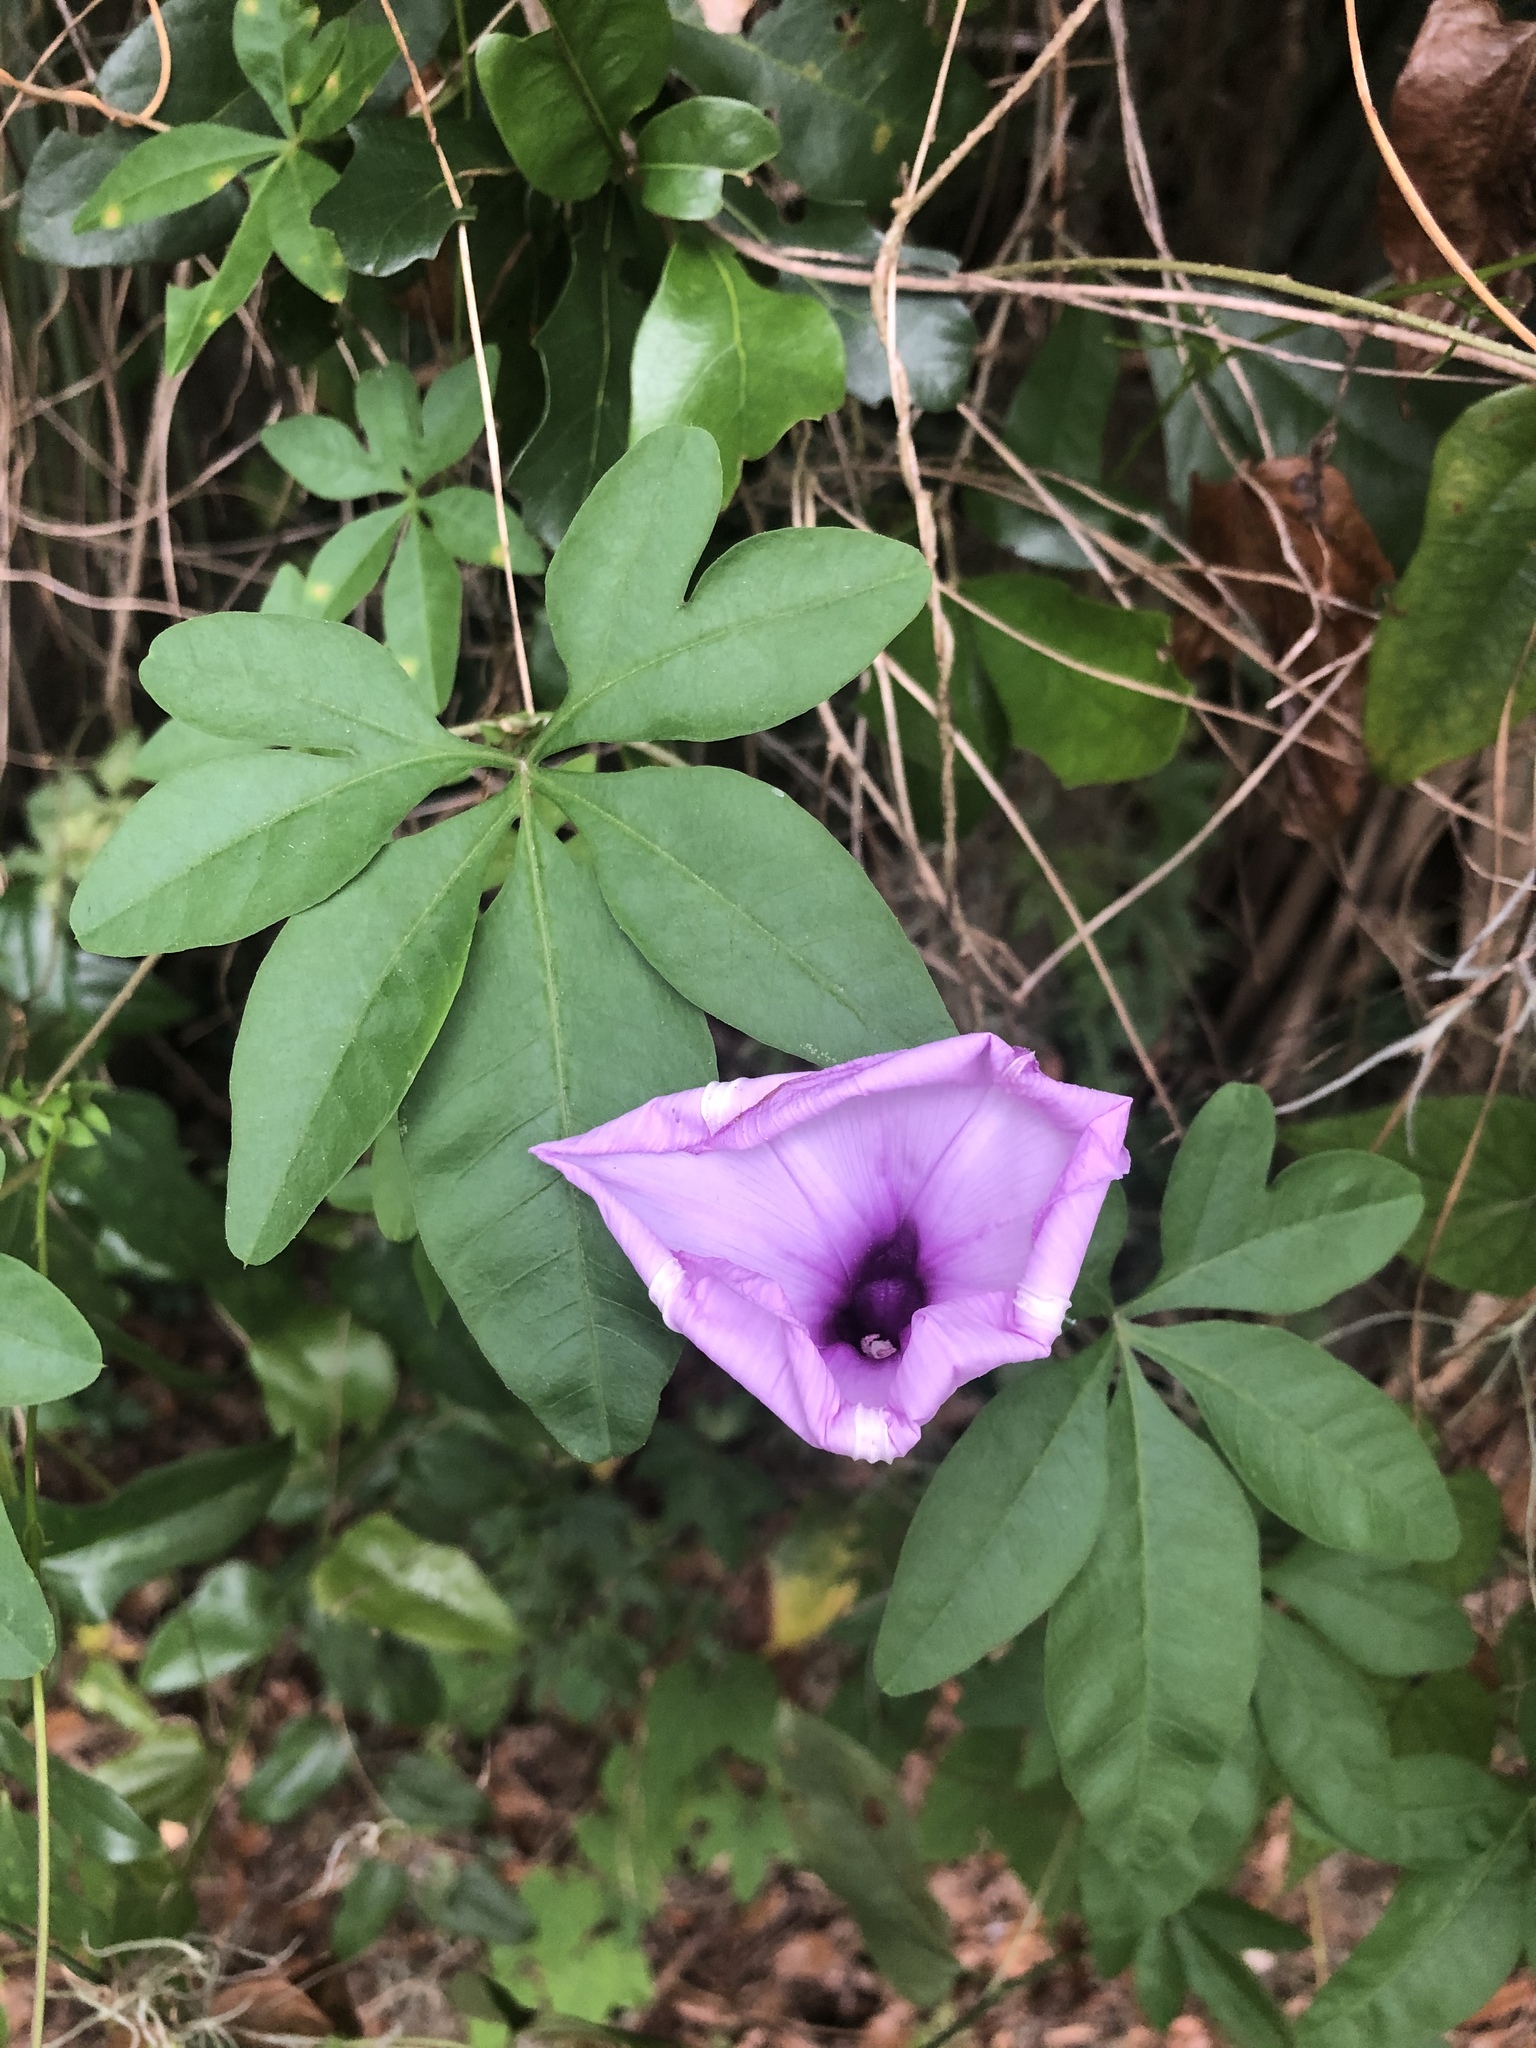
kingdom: Plantae
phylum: Tracheophyta
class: Magnoliopsida
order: Solanales
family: Convolvulaceae
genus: Ipomoea
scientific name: Ipomoea cairica
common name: Mile a minute vine
